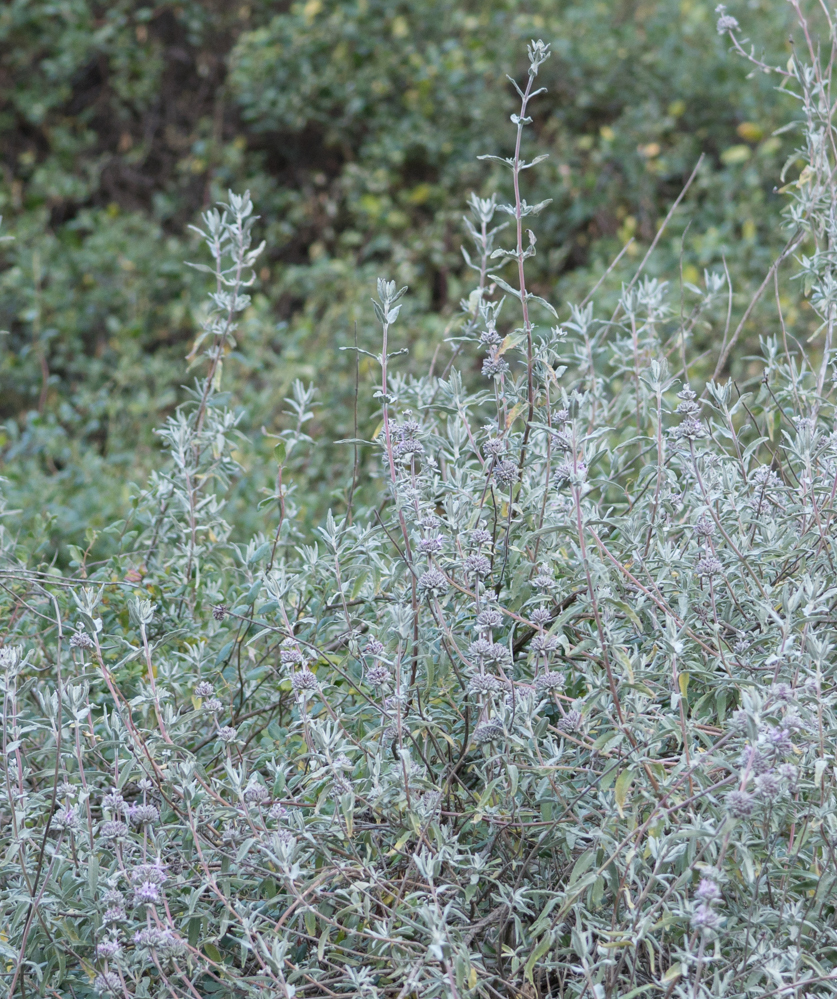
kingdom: Plantae
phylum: Tracheophyta
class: Magnoliopsida
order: Lamiales
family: Lamiaceae
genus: Salvia
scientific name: Salvia leucophylla
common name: Purple sage
